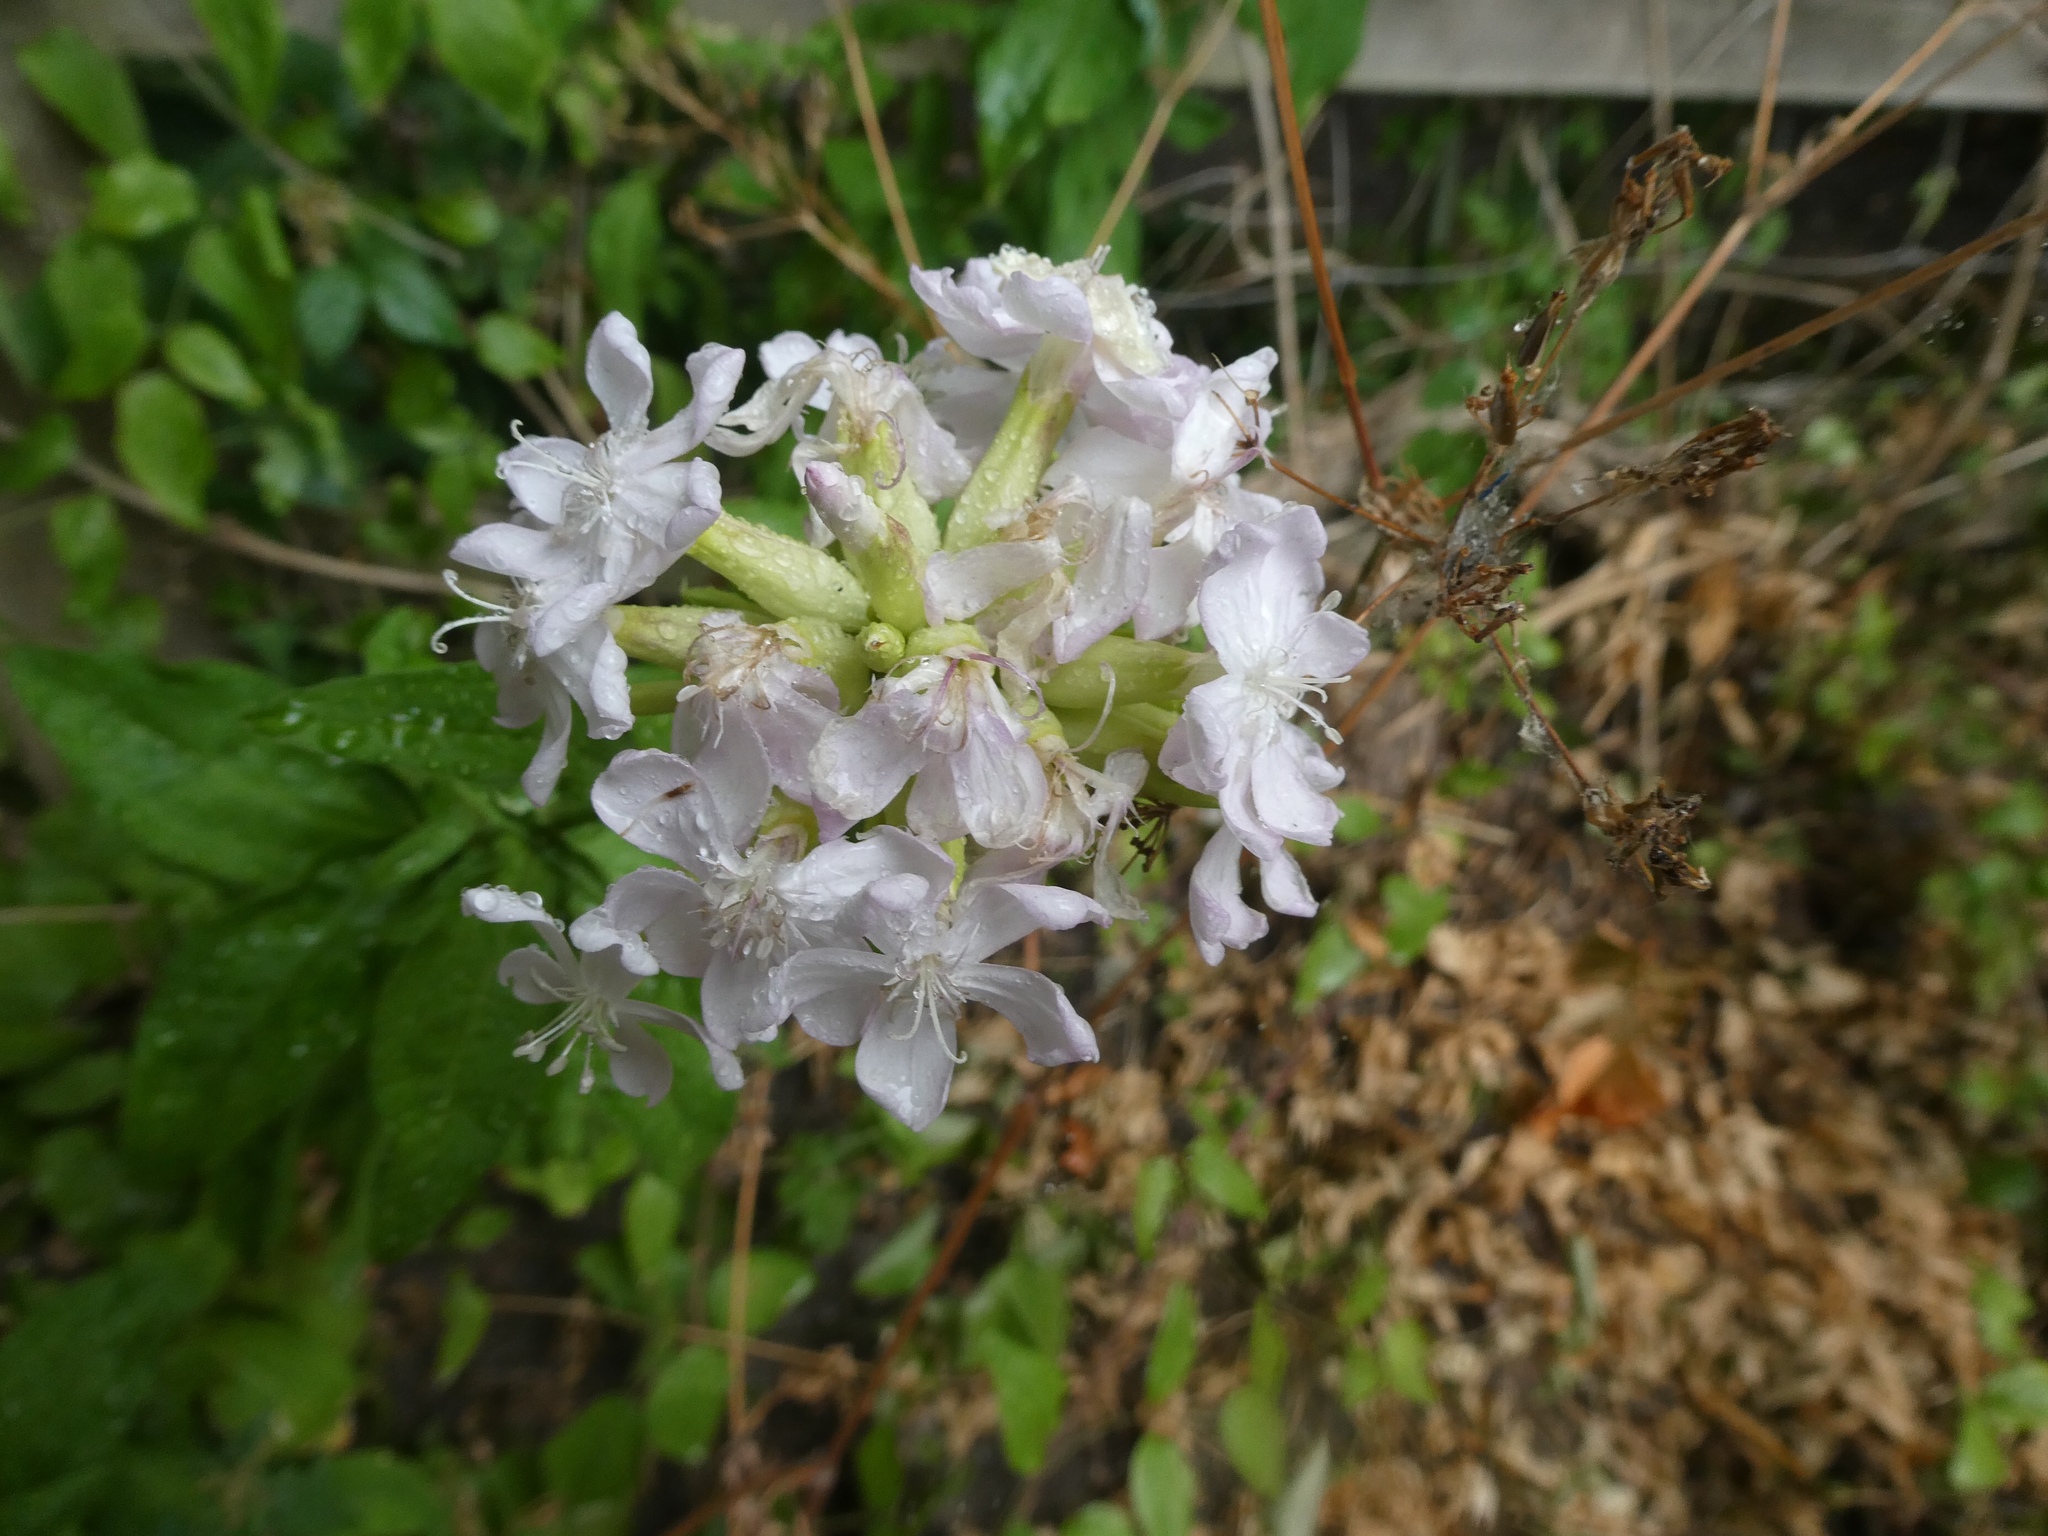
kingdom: Plantae
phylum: Tracheophyta
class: Magnoliopsida
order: Caryophyllales
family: Caryophyllaceae
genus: Saponaria
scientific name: Saponaria officinalis
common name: Soapwort
